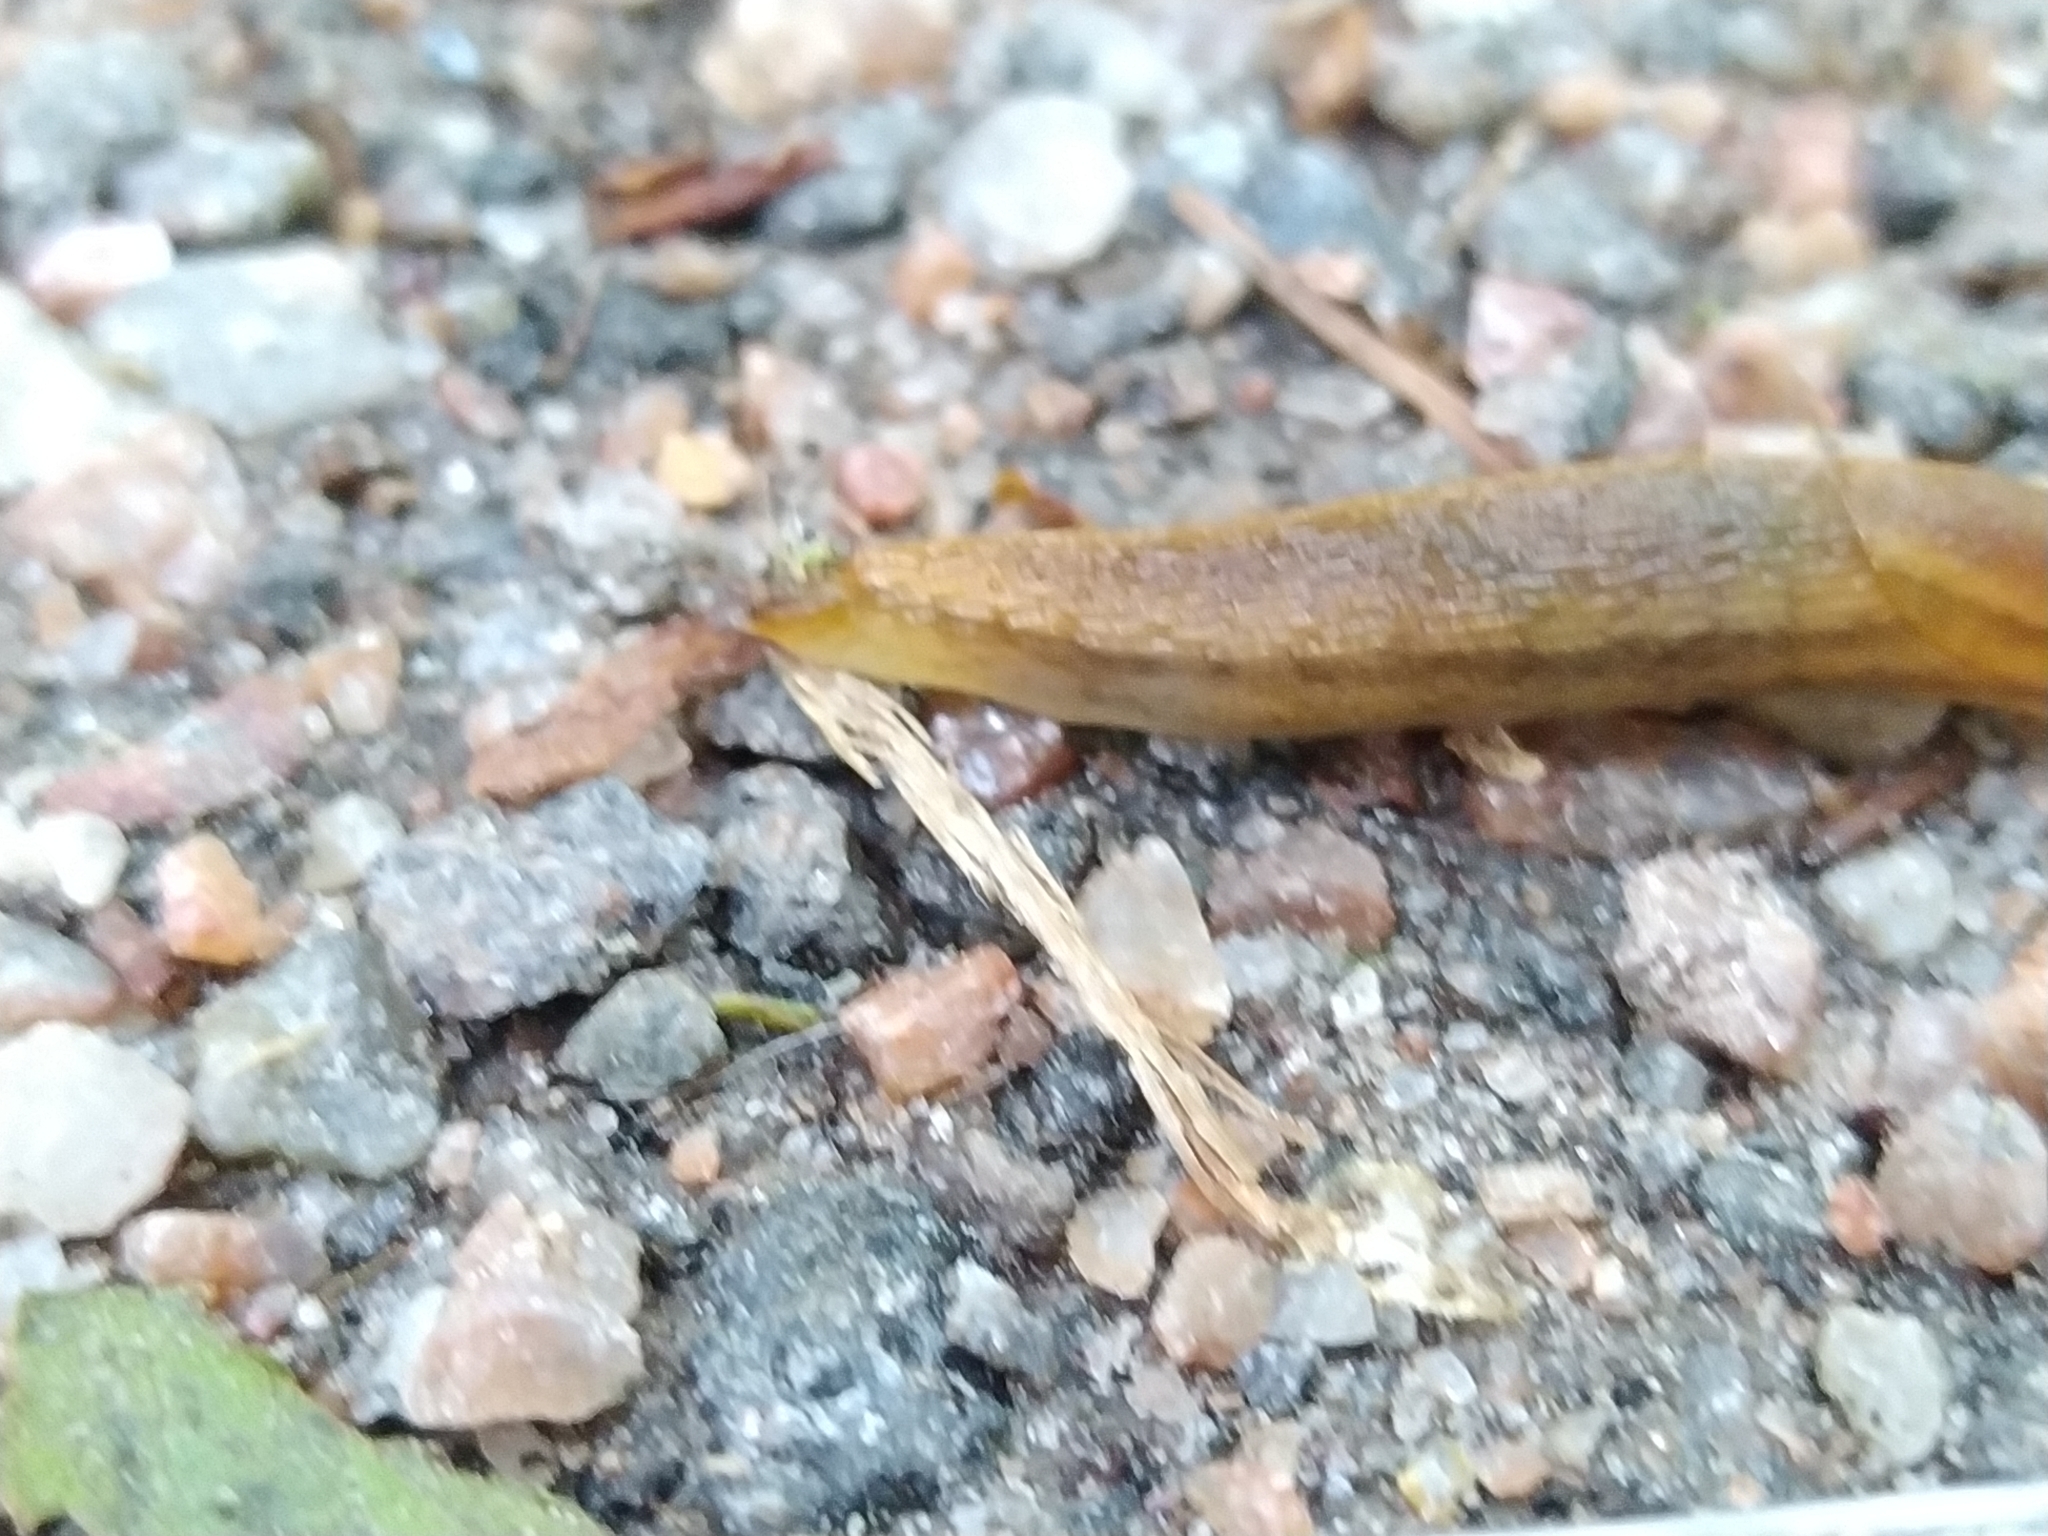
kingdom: Animalia
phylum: Mollusca
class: Gastropoda
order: Stylommatophora
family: Arionidae
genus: Arion
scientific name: Arion fuscus
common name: Northern dusky slug
